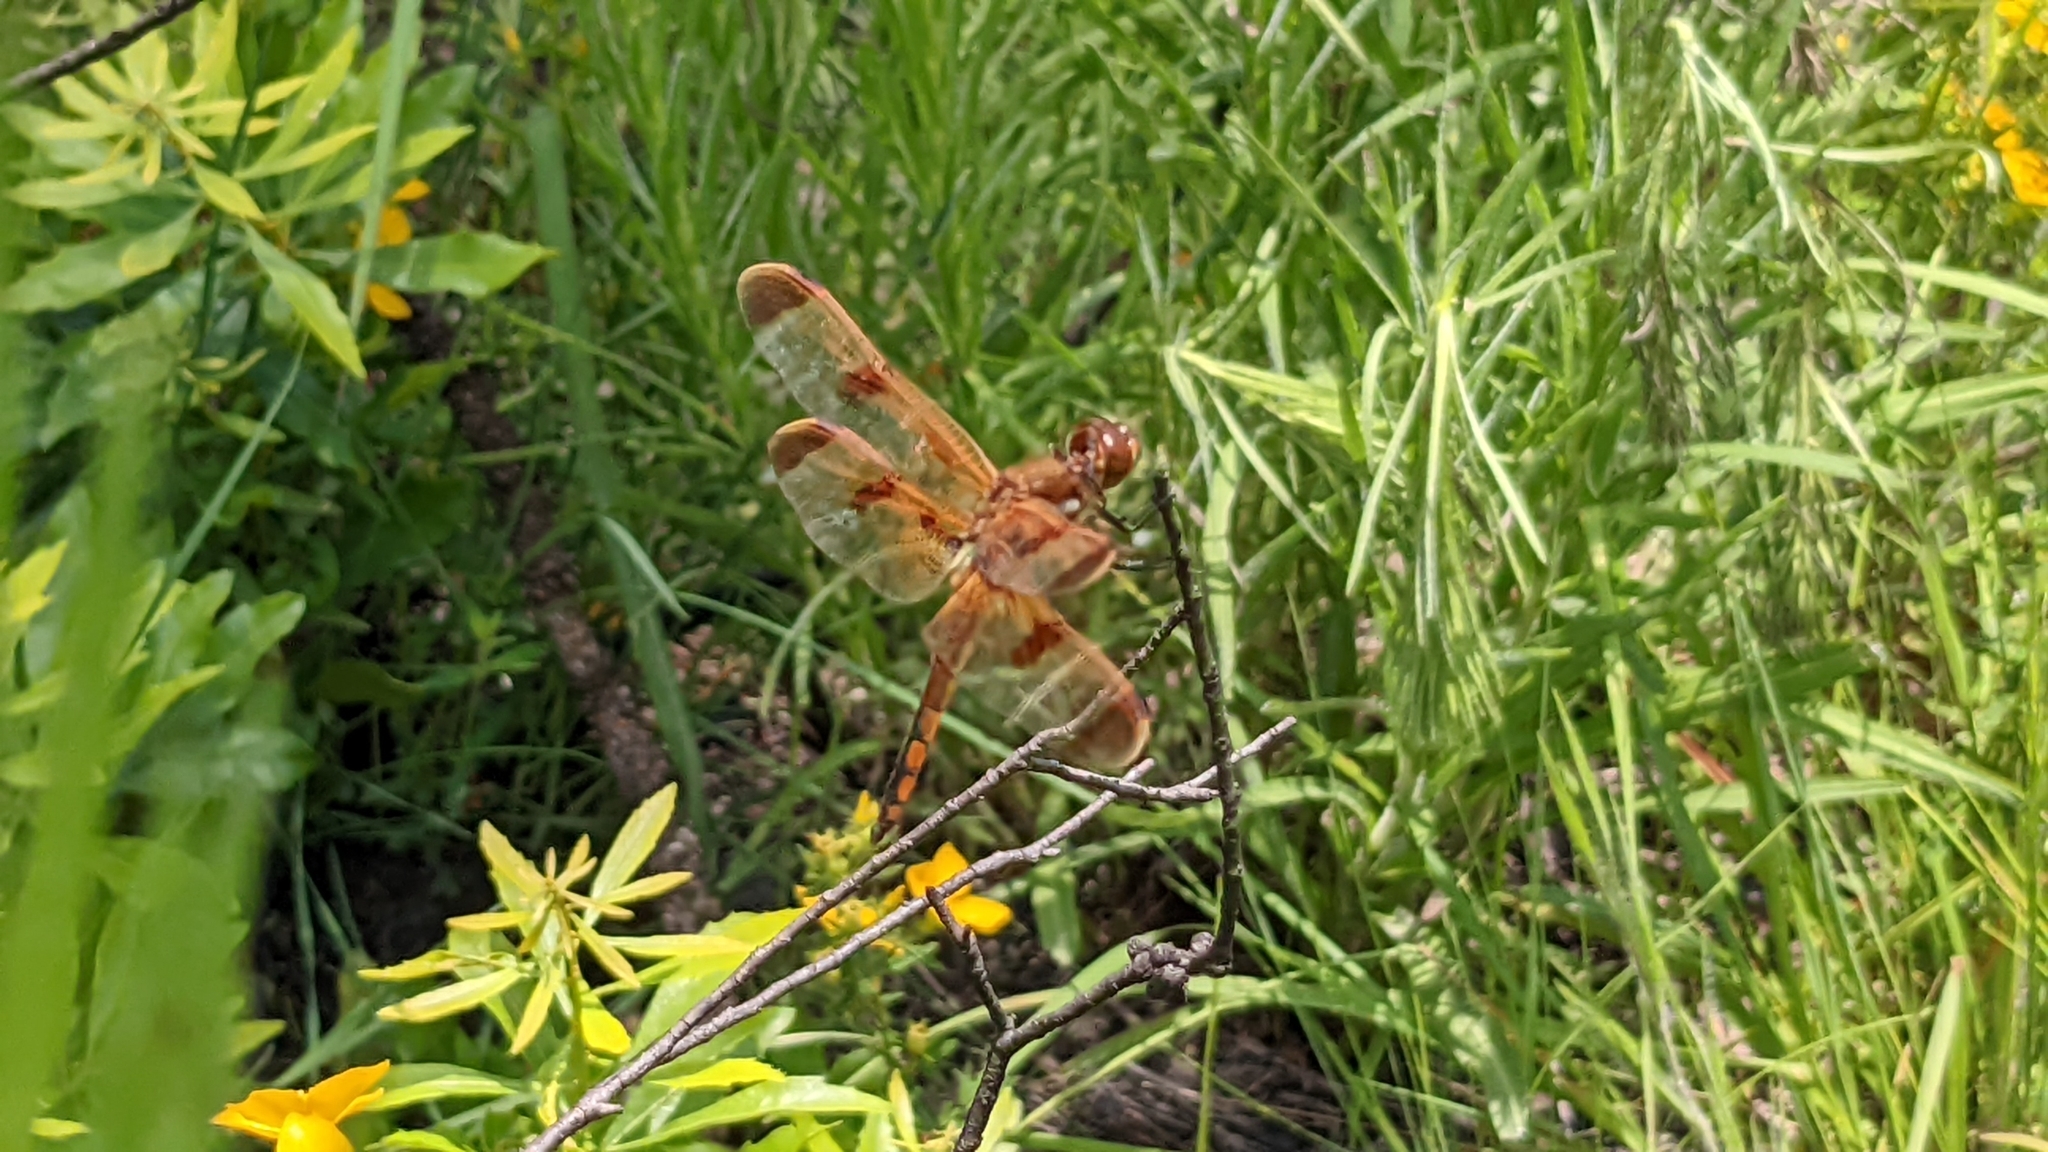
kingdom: Animalia
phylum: Arthropoda
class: Insecta
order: Odonata
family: Libellulidae
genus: Libellula
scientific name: Libellula semifasciata
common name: Painted skimmer
